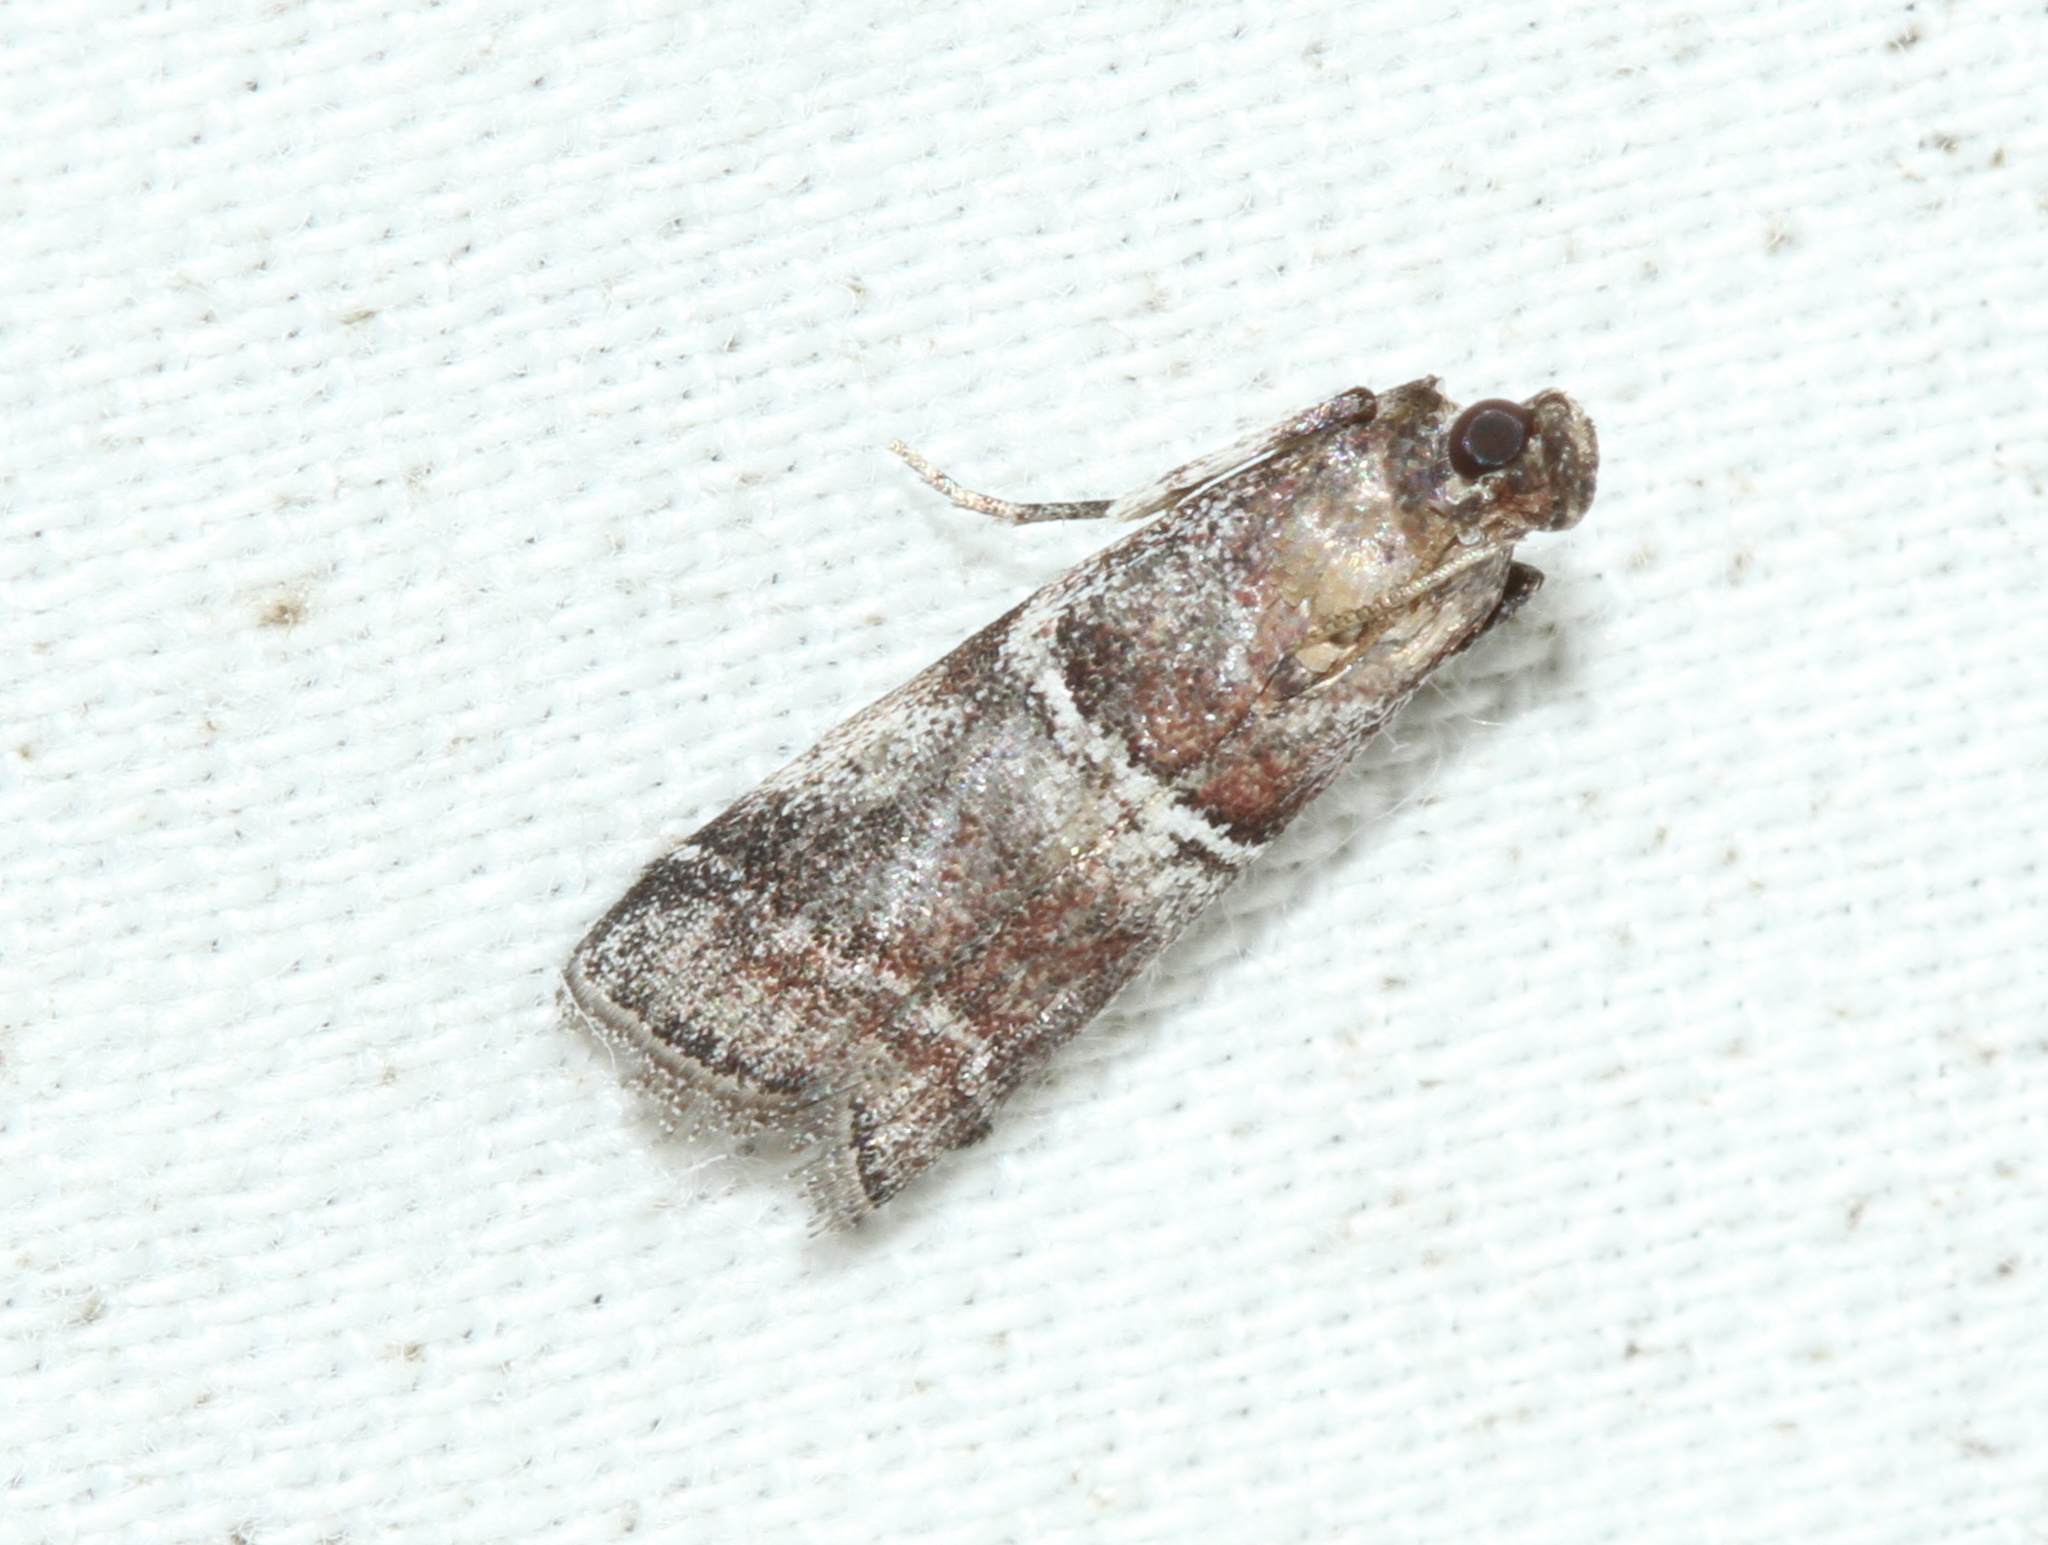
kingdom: Animalia
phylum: Arthropoda
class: Insecta
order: Lepidoptera
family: Pyralidae
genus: Alophia
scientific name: Alophia combustella
